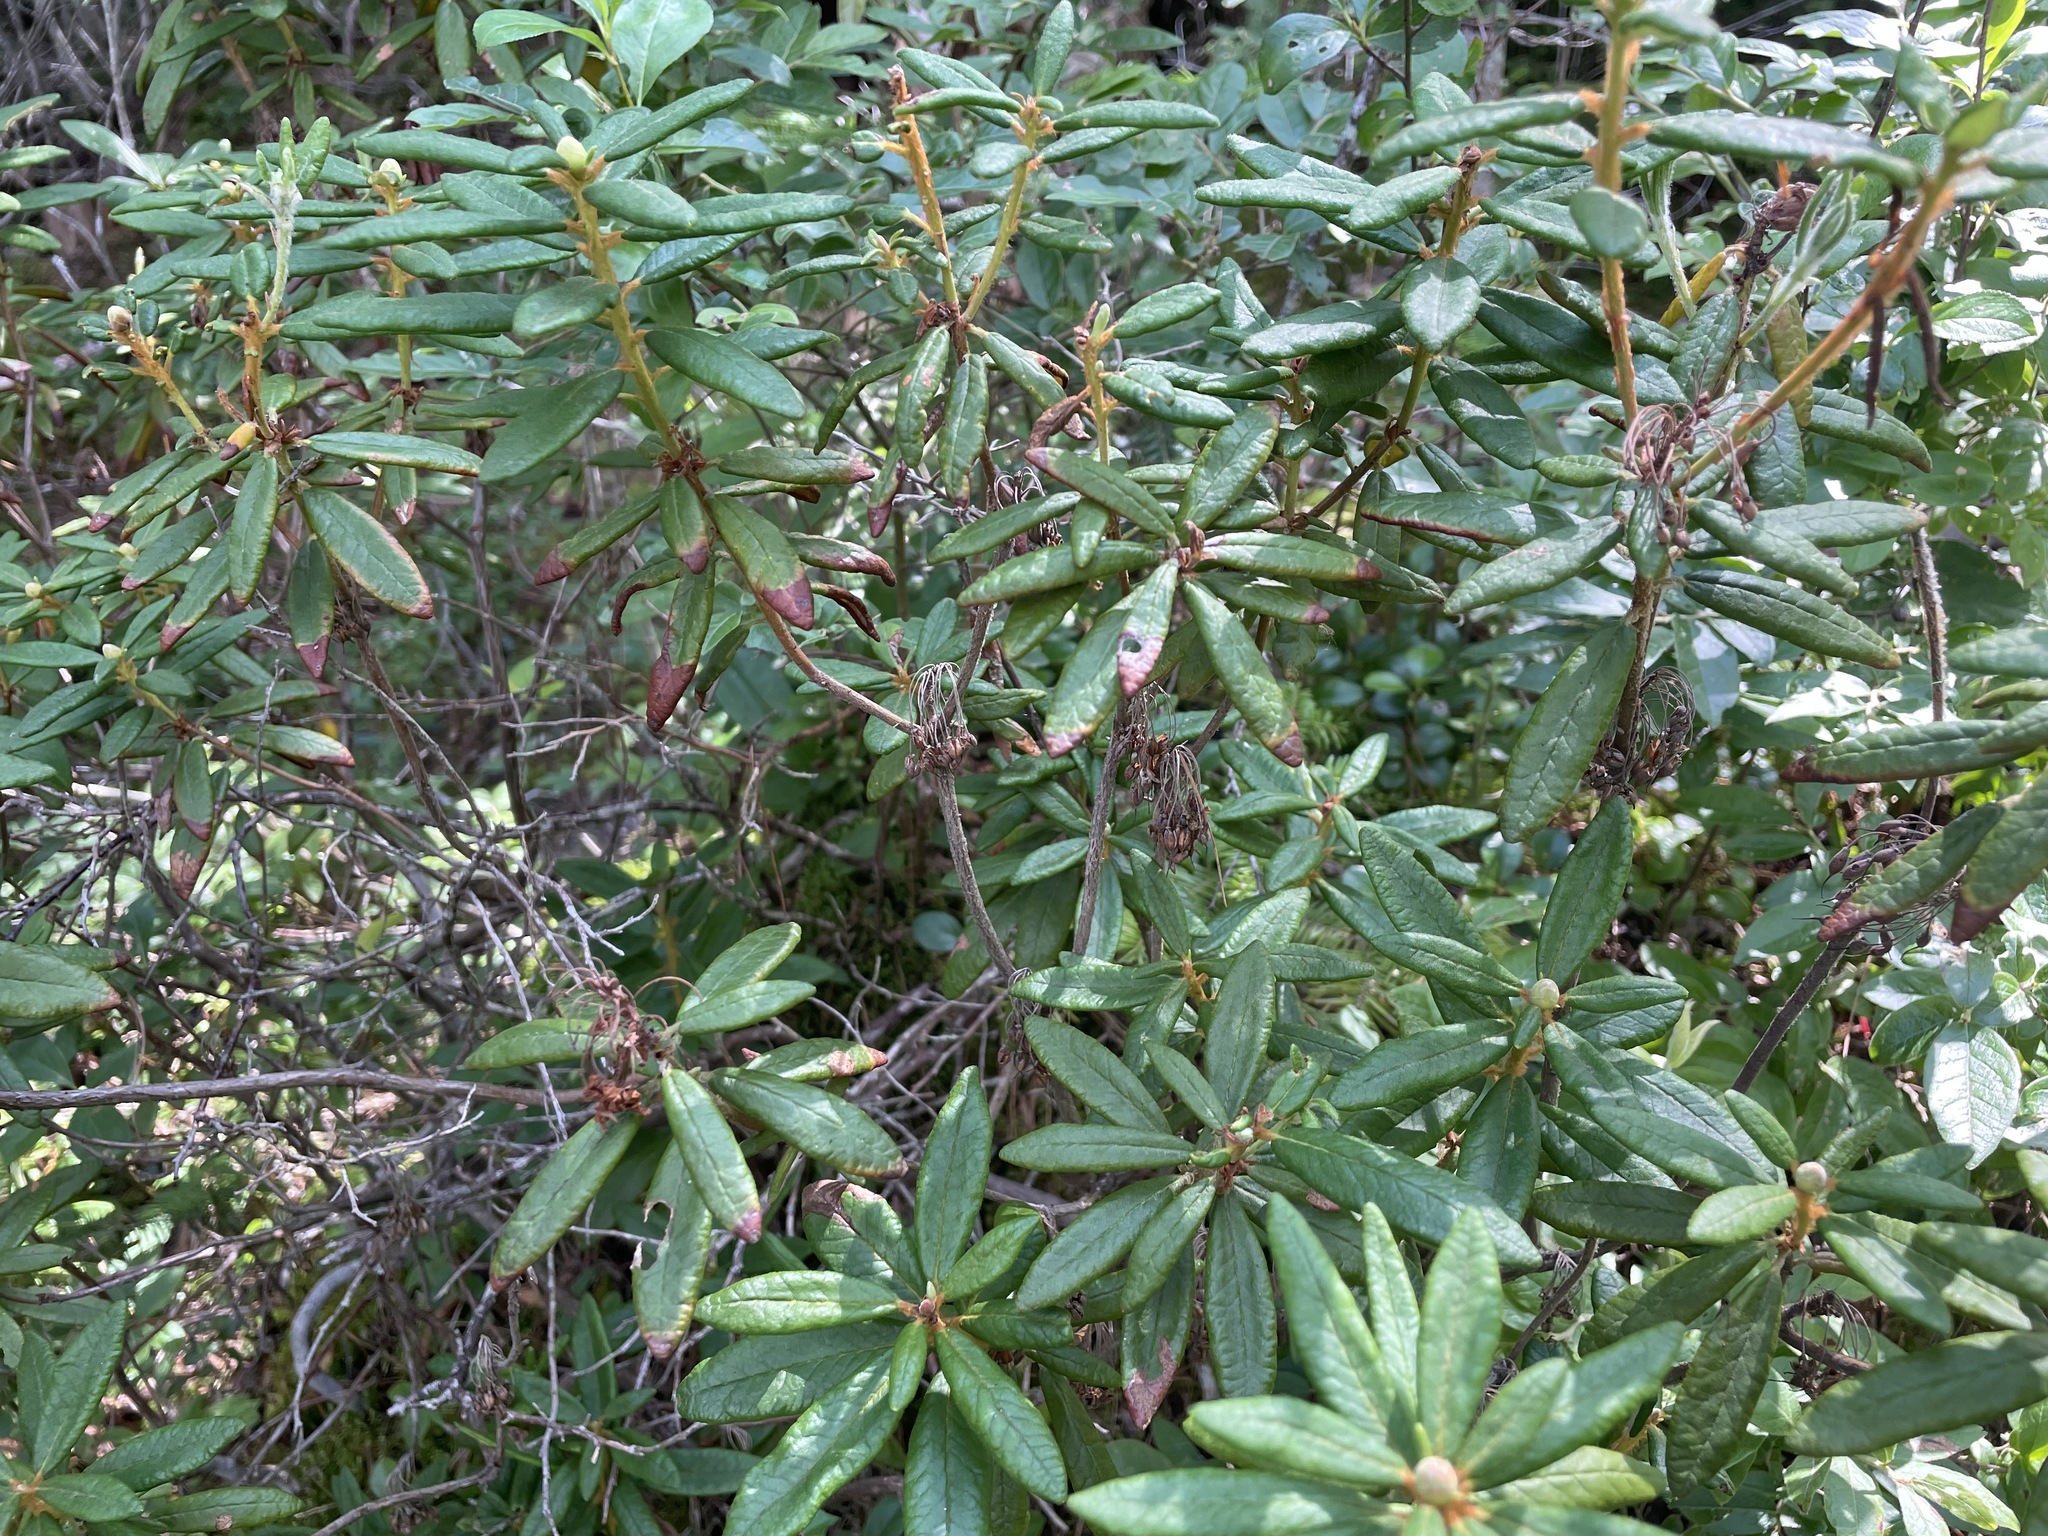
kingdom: Plantae
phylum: Tracheophyta
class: Magnoliopsida
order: Ericales
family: Ericaceae
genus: Rhododendron
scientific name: Rhododendron groenlandicum
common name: Bog labrador tea
